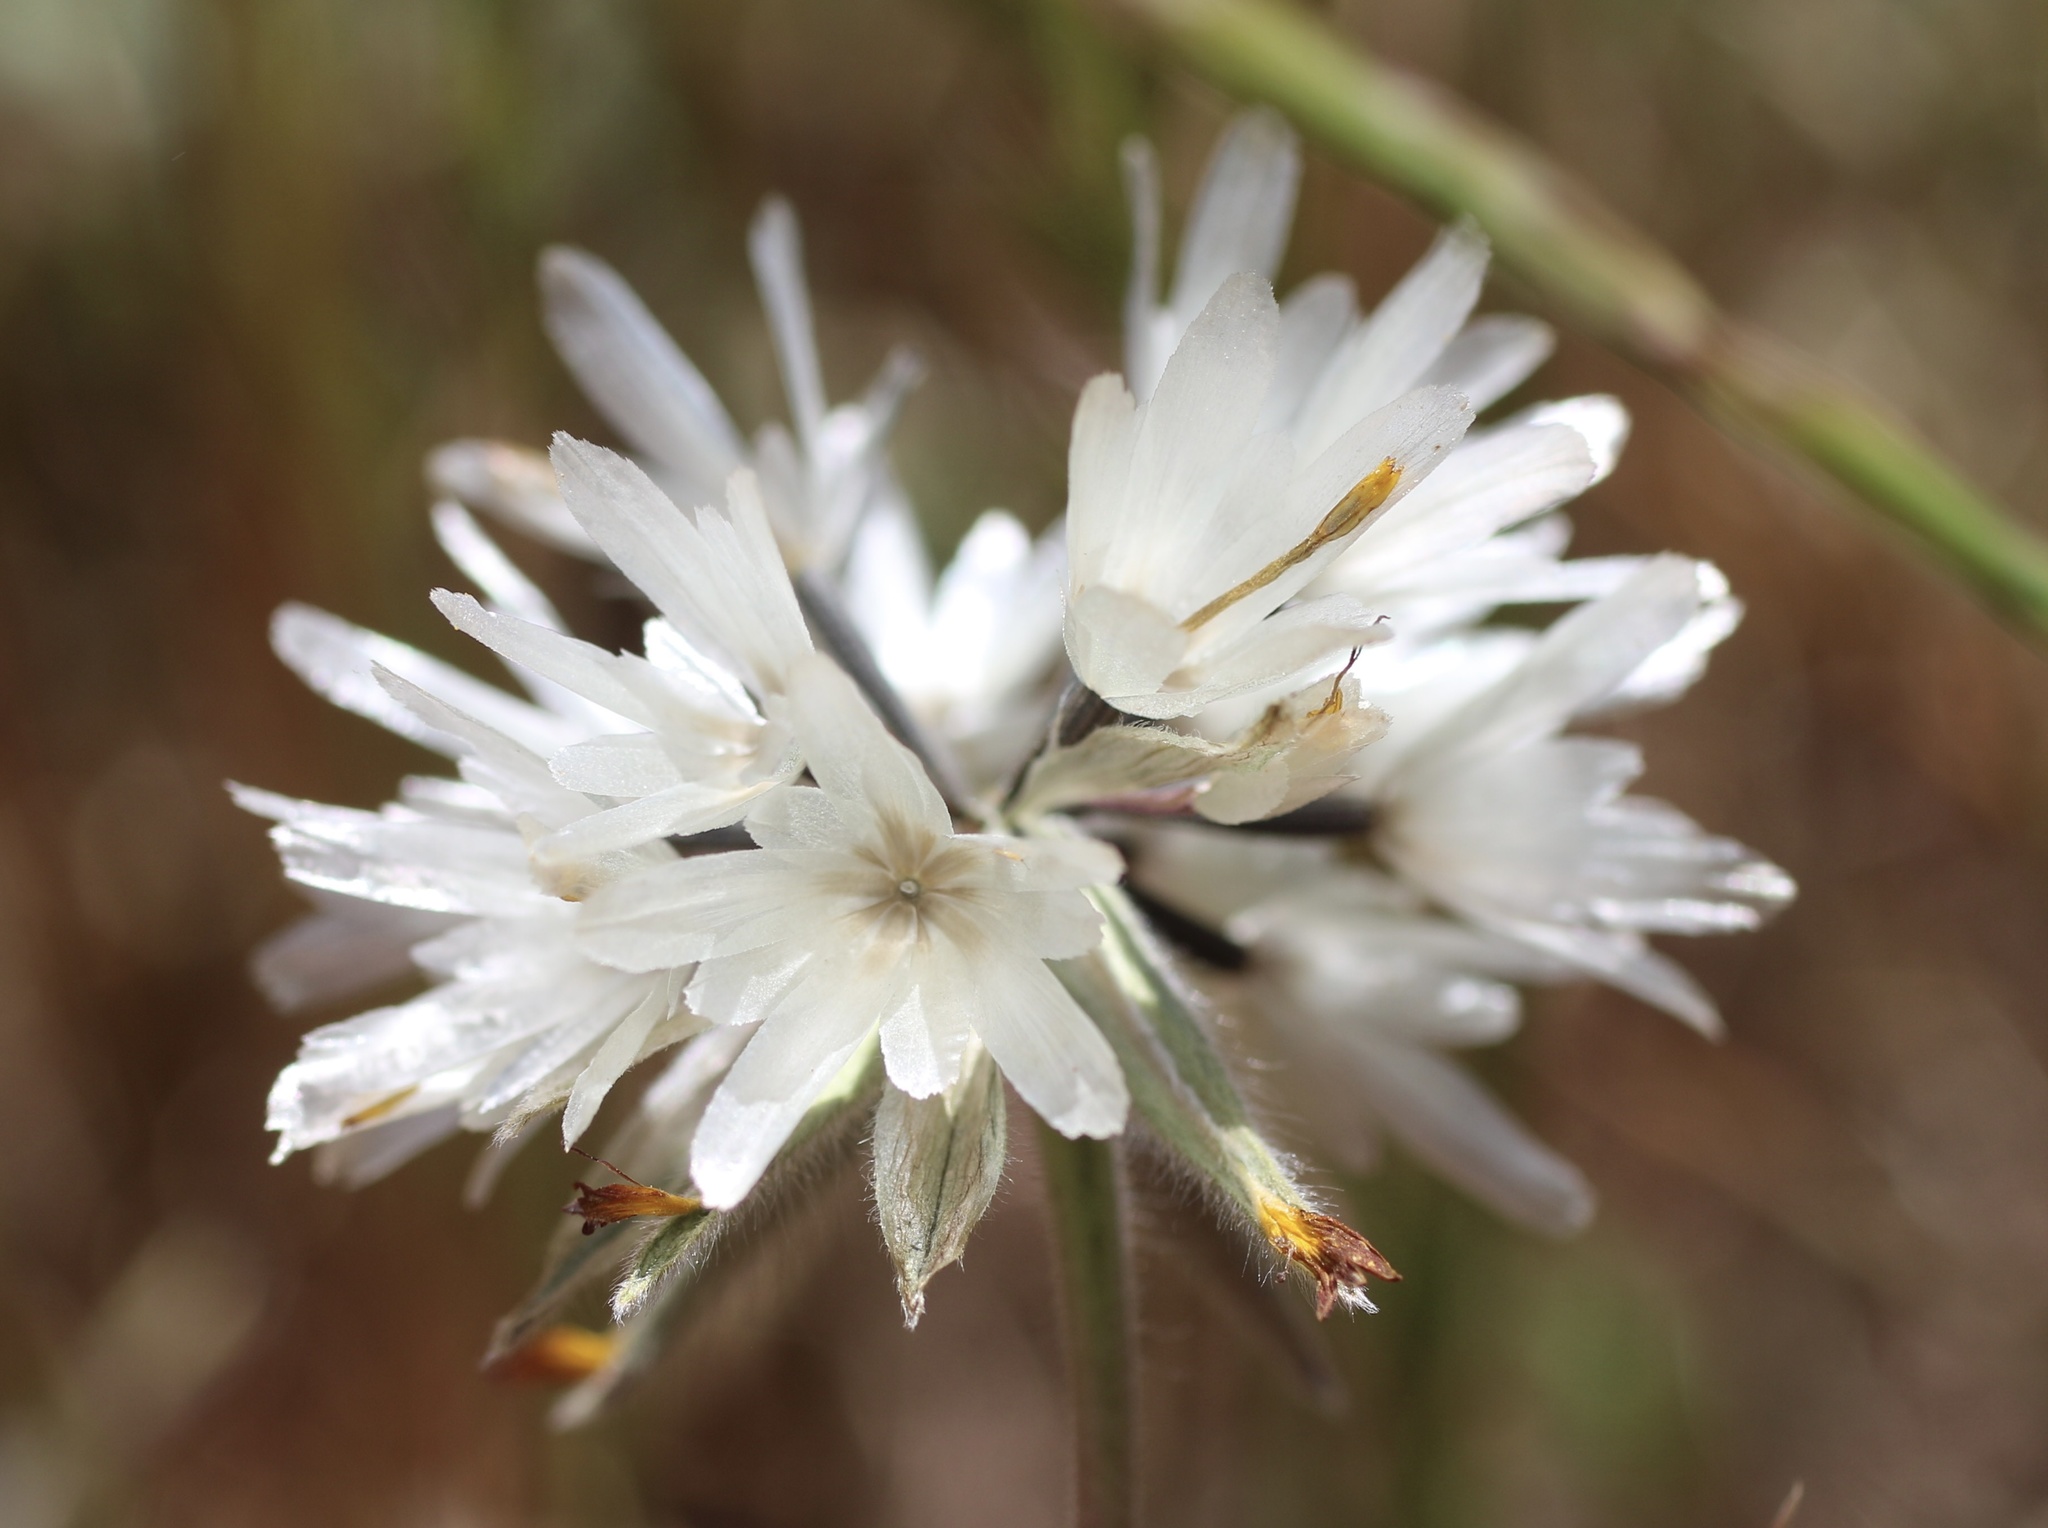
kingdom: Plantae
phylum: Tracheophyta
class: Magnoliopsida
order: Asterales
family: Asteraceae
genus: Achyrachaena
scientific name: Achyrachaena mollis
